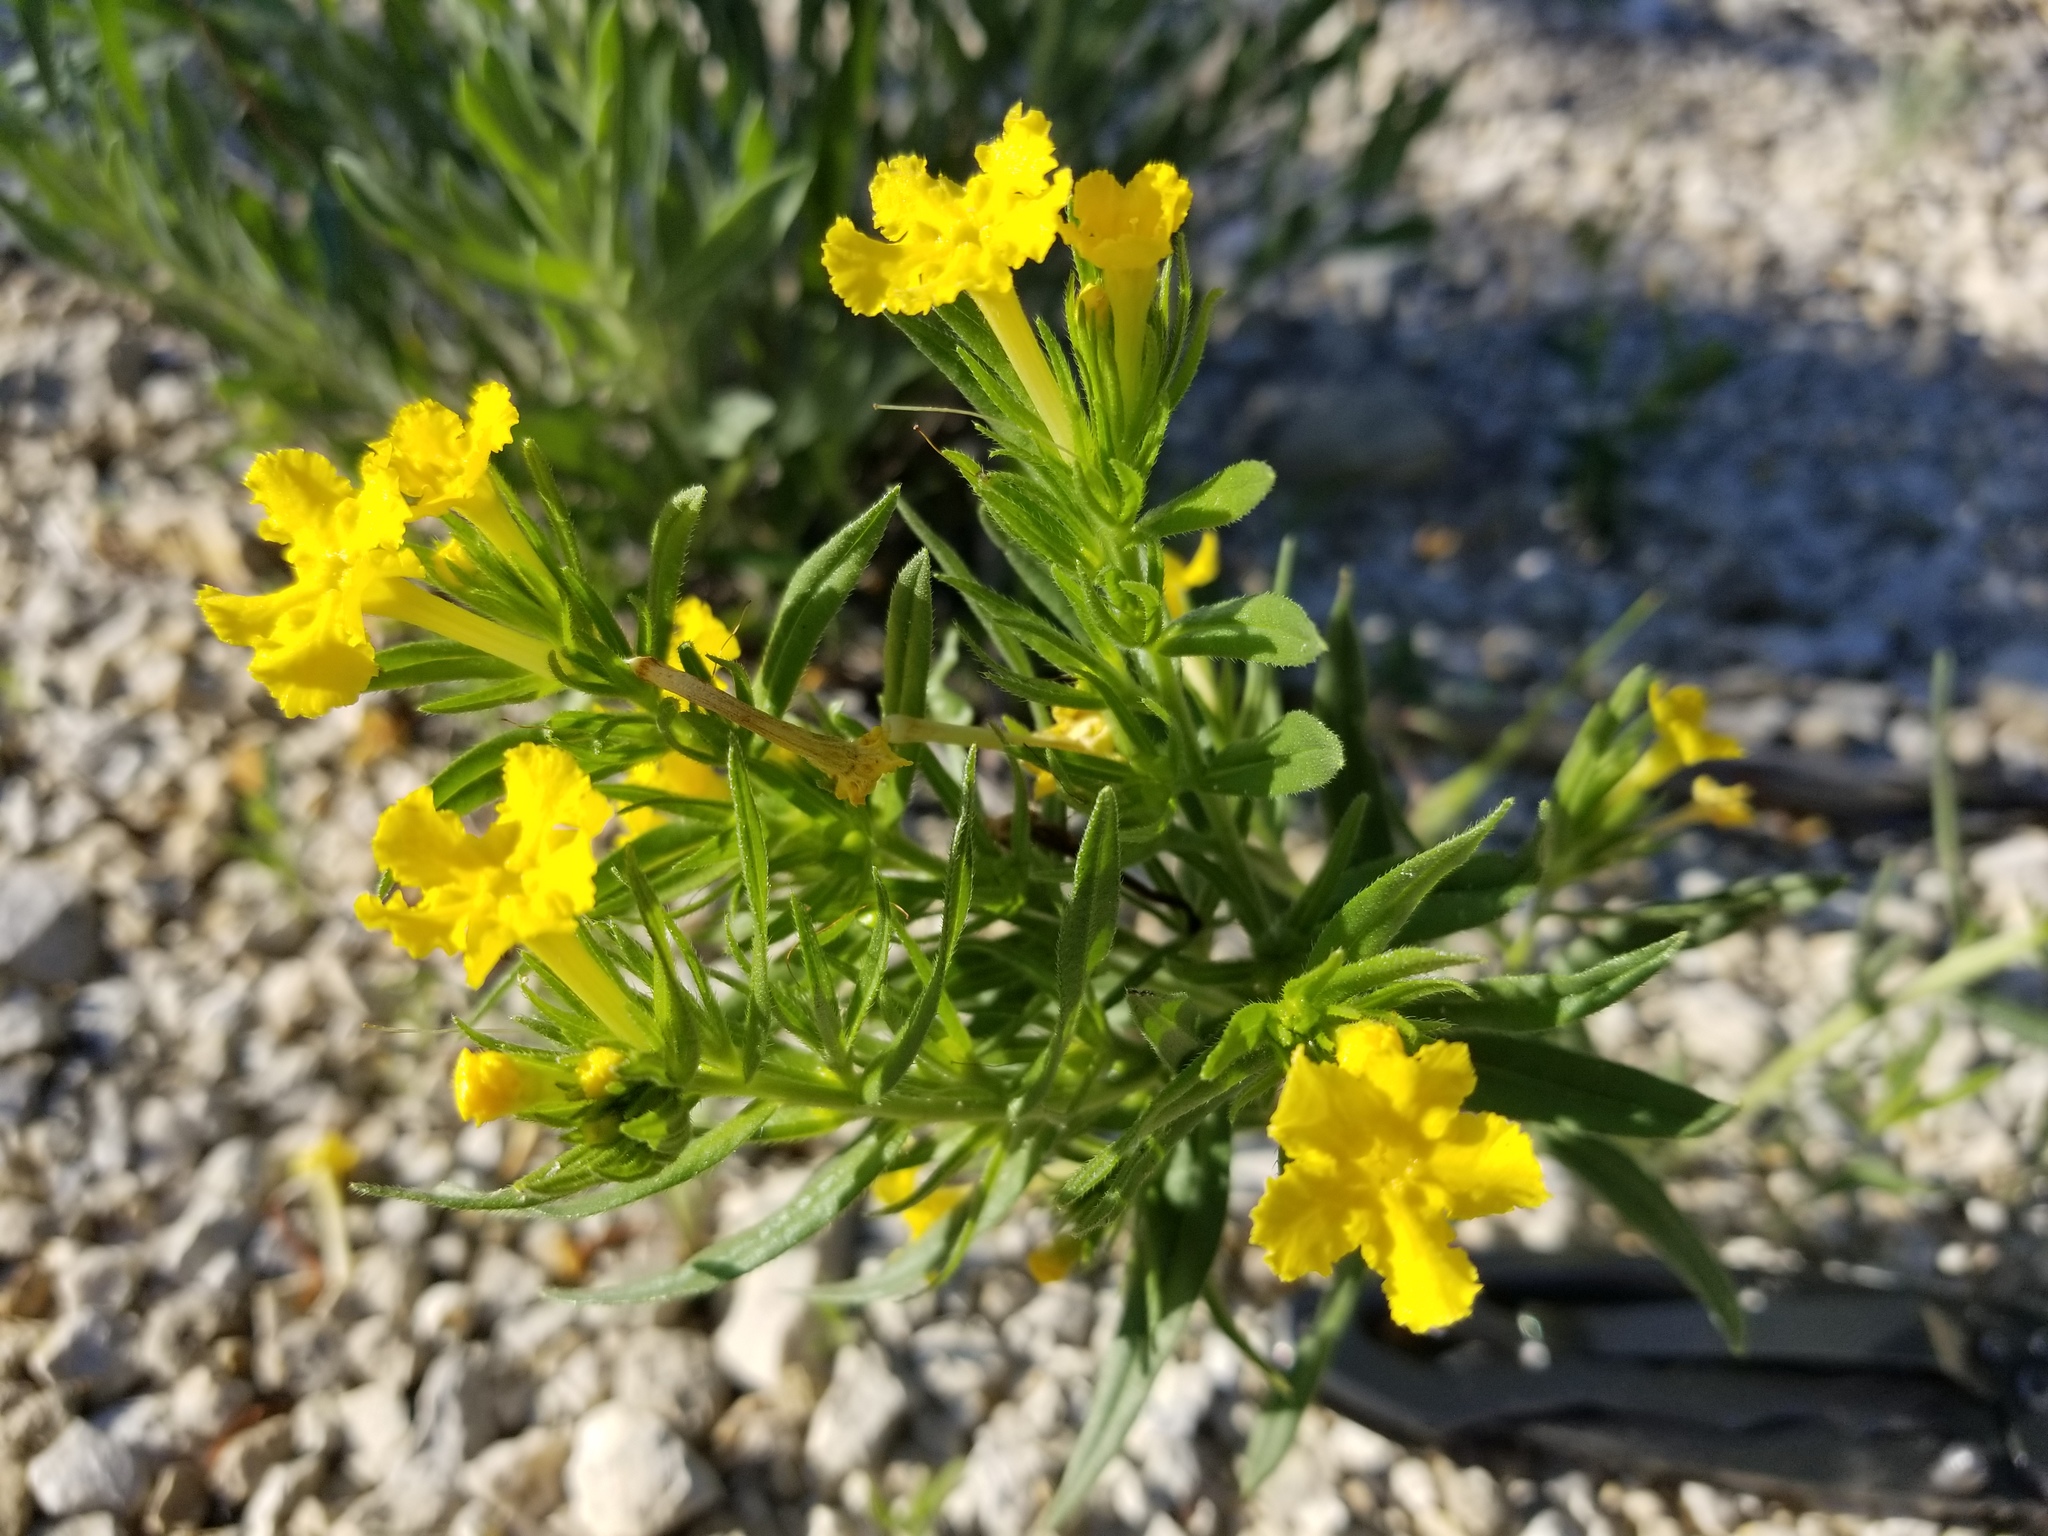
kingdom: Plantae
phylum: Tracheophyta
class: Magnoliopsida
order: Boraginales
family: Boraginaceae
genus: Lithospermum
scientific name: Lithospermum incisum
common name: Fringed gromwell
